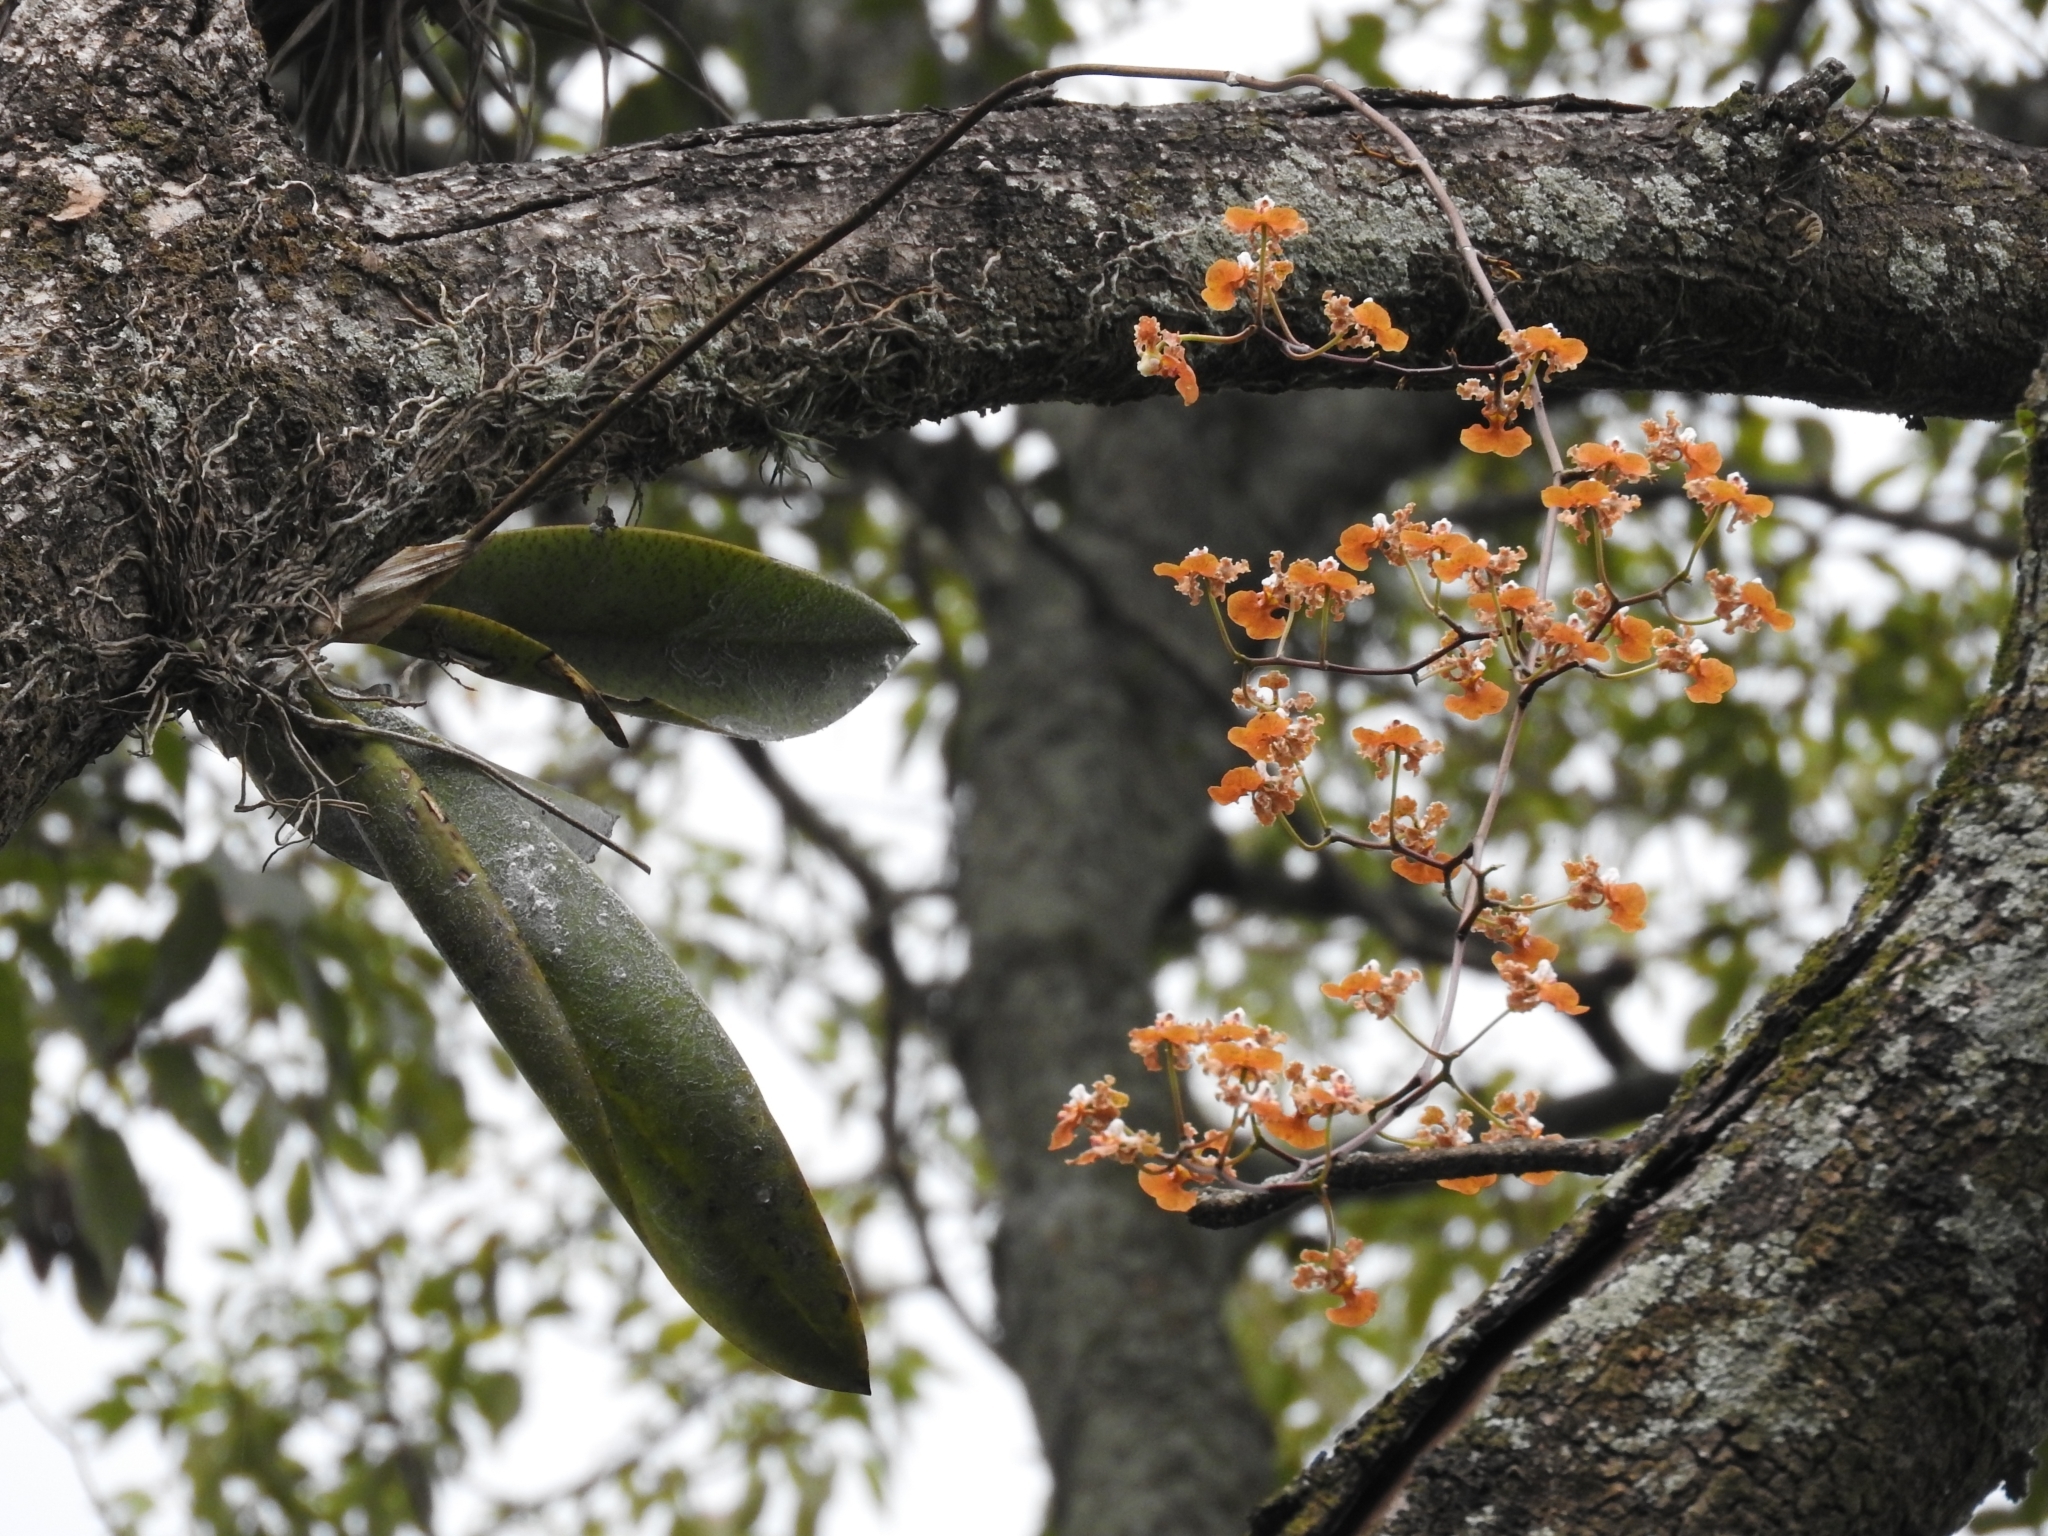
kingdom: Plantae
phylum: Tracheophyta
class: Liliopsida
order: Asparagales
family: Orchidaceae
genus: Trichocentrum
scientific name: Trichocentrum luridum
